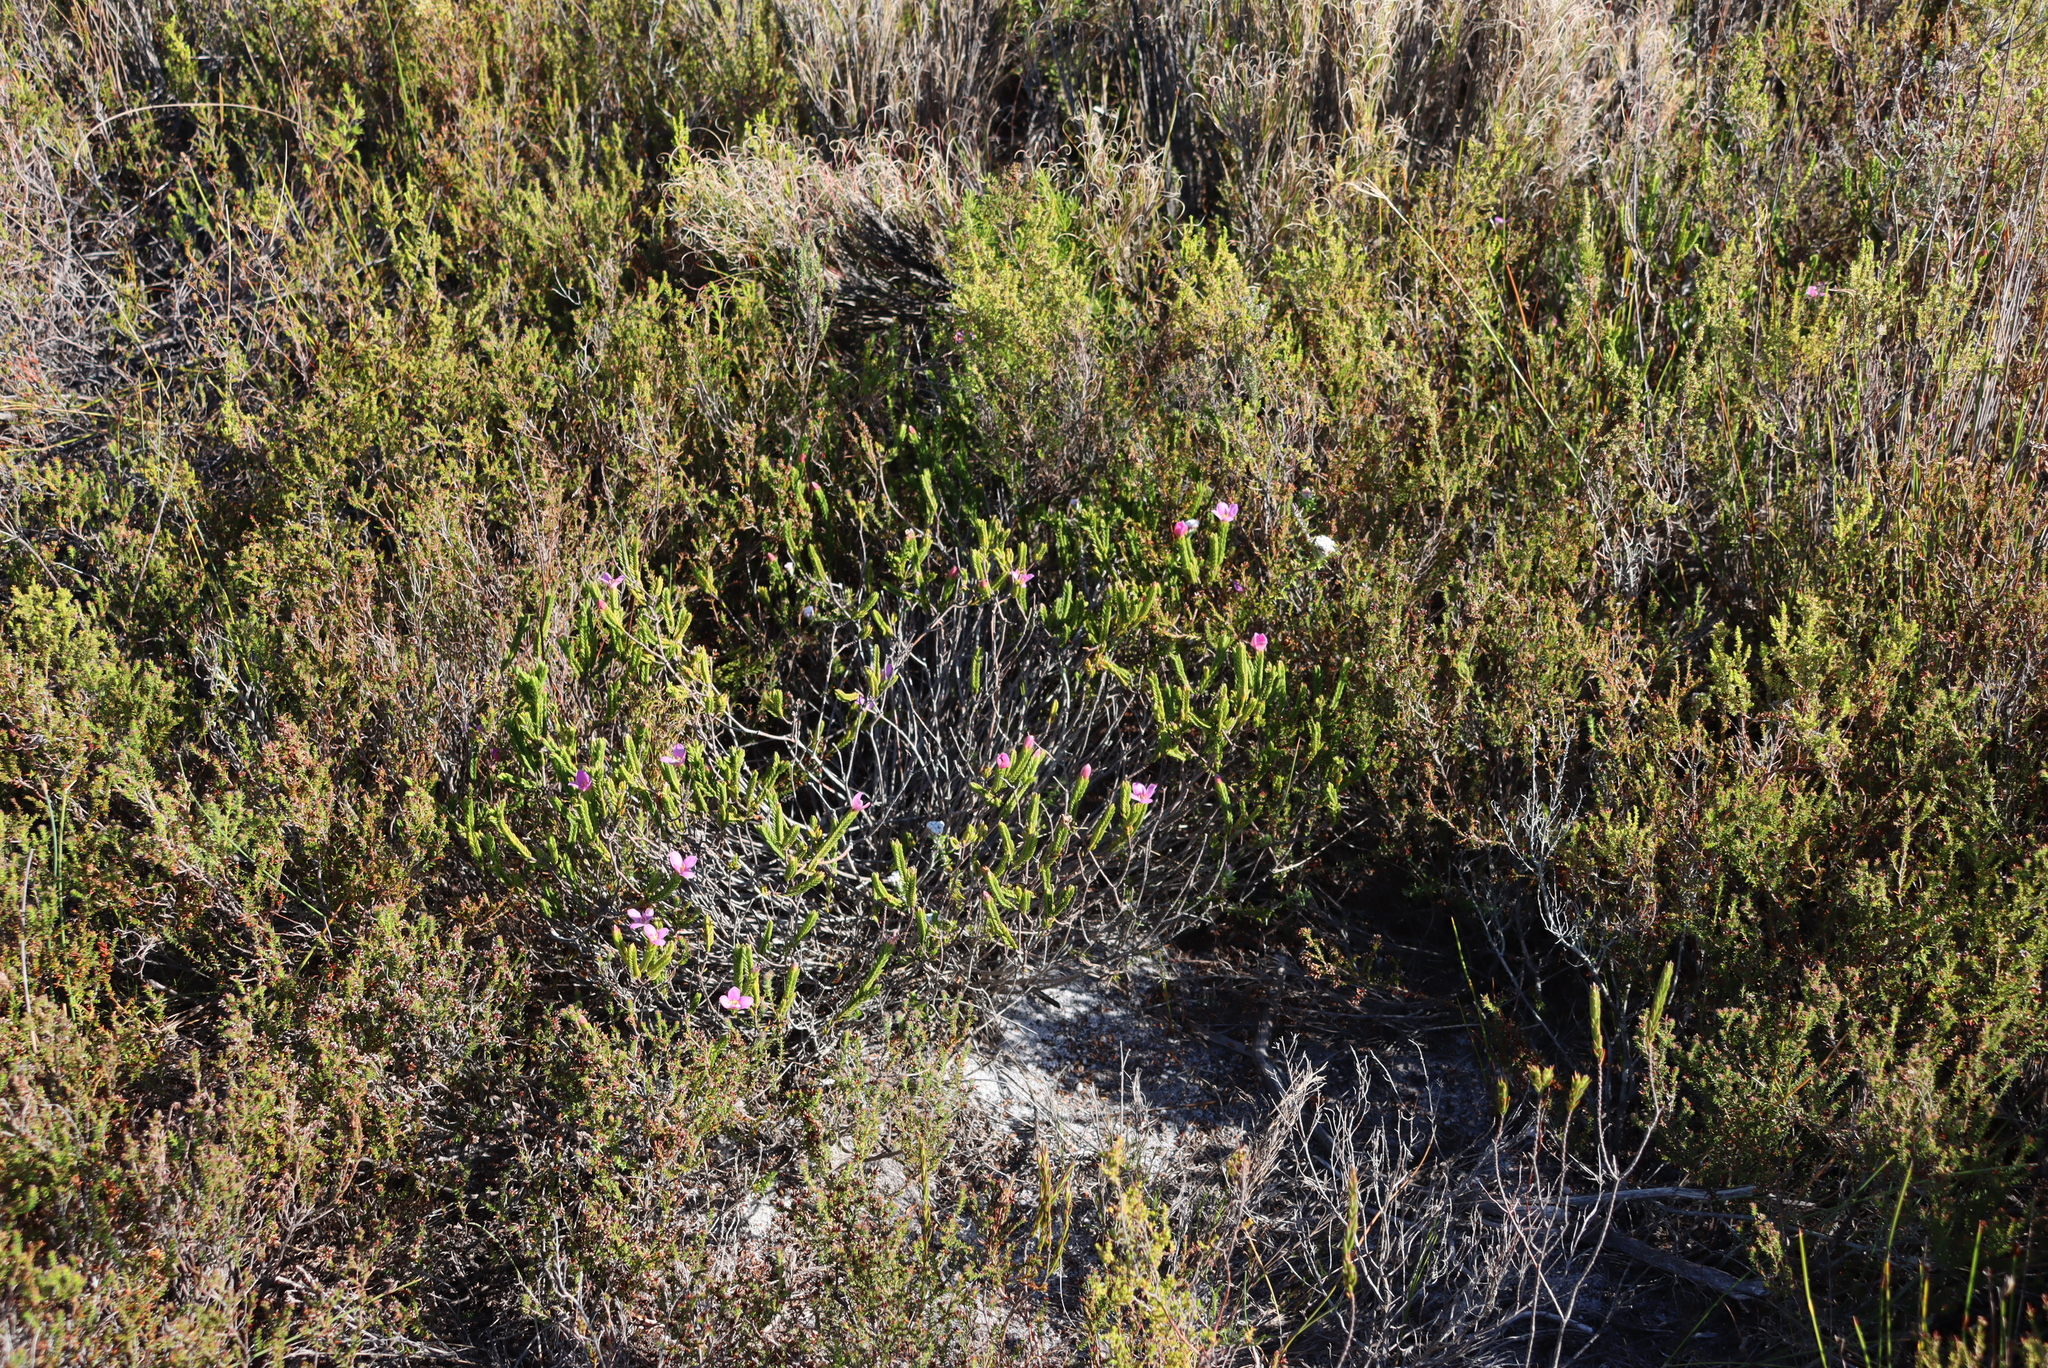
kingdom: Plantae
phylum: Tracheophyta
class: Magnoliopsida
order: Malvales
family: Thymelaeaceae
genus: Lachnaea
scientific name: Lachnaea grandiflora
